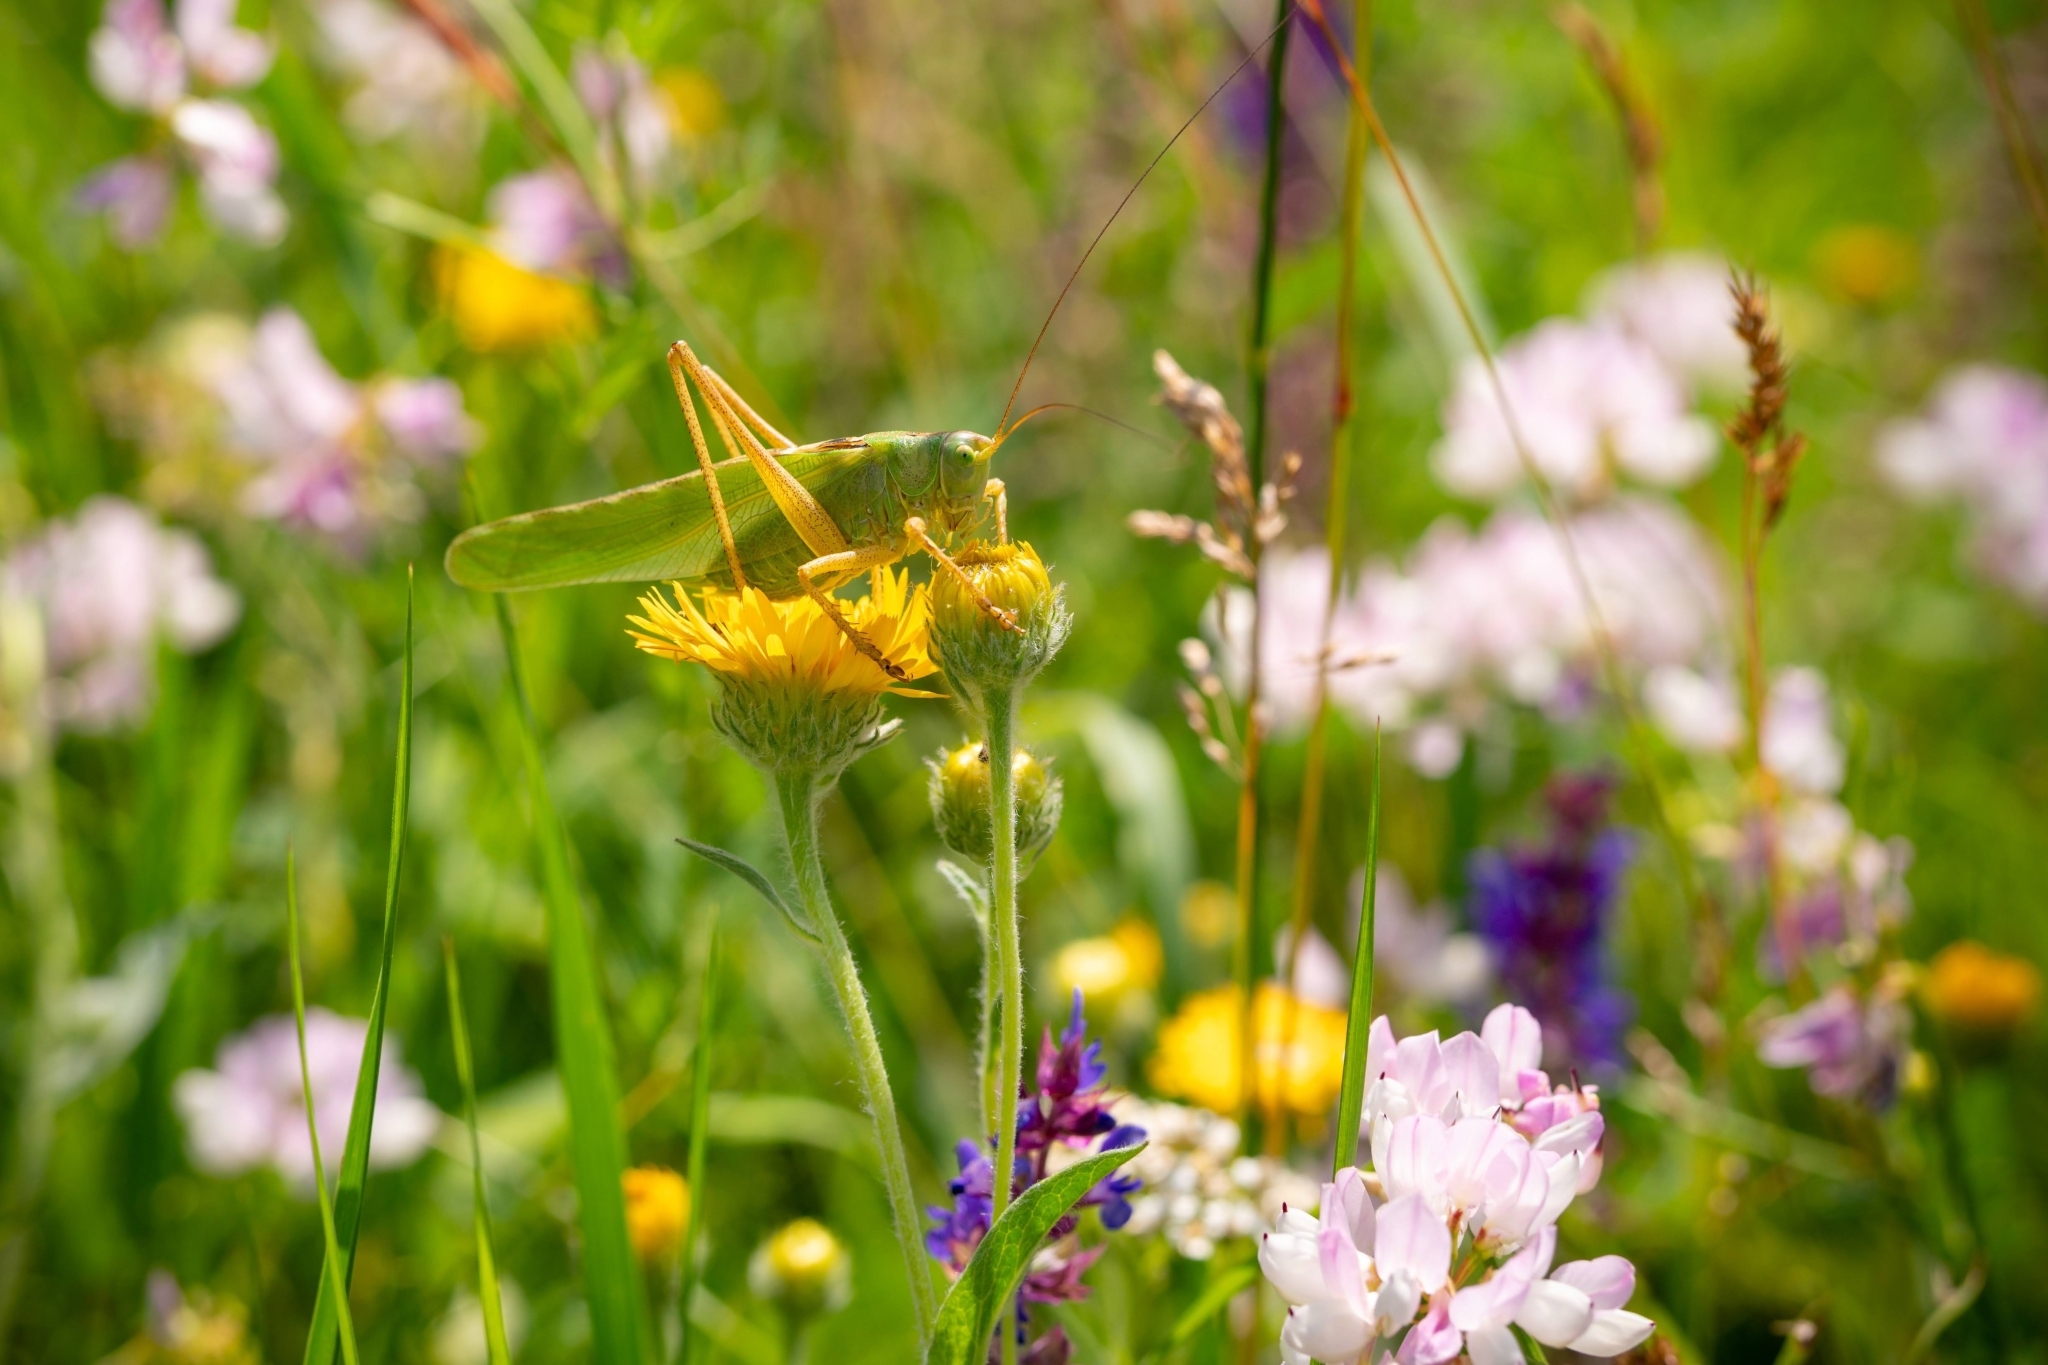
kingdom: Animalia
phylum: Arthropoda
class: Insecta
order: Orthoptera
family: Tettigoniidae
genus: Tettigonia
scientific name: Tettigonia viridissima
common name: Great green bush-cricket
